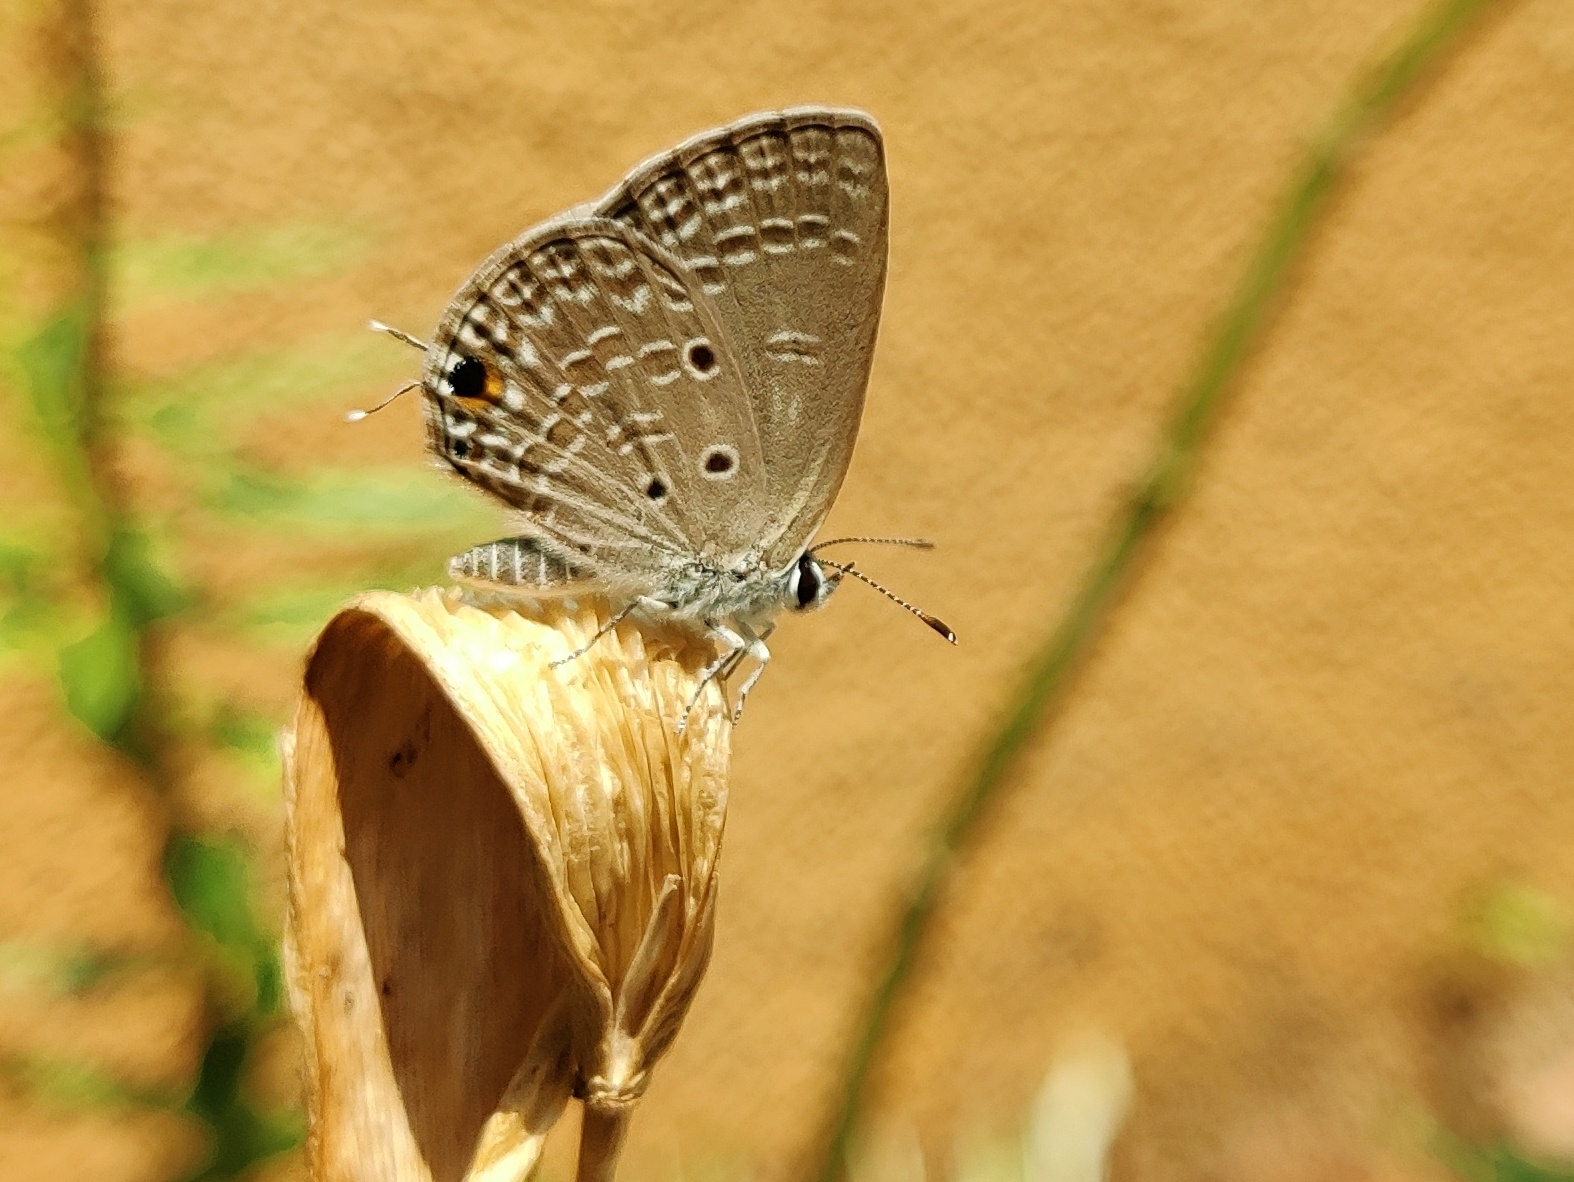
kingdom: Animalia
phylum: Arthropoda
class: Insecta
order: Lepidoptera
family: Lycaenidae
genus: Luthrodes
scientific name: Luthrodes pandava
